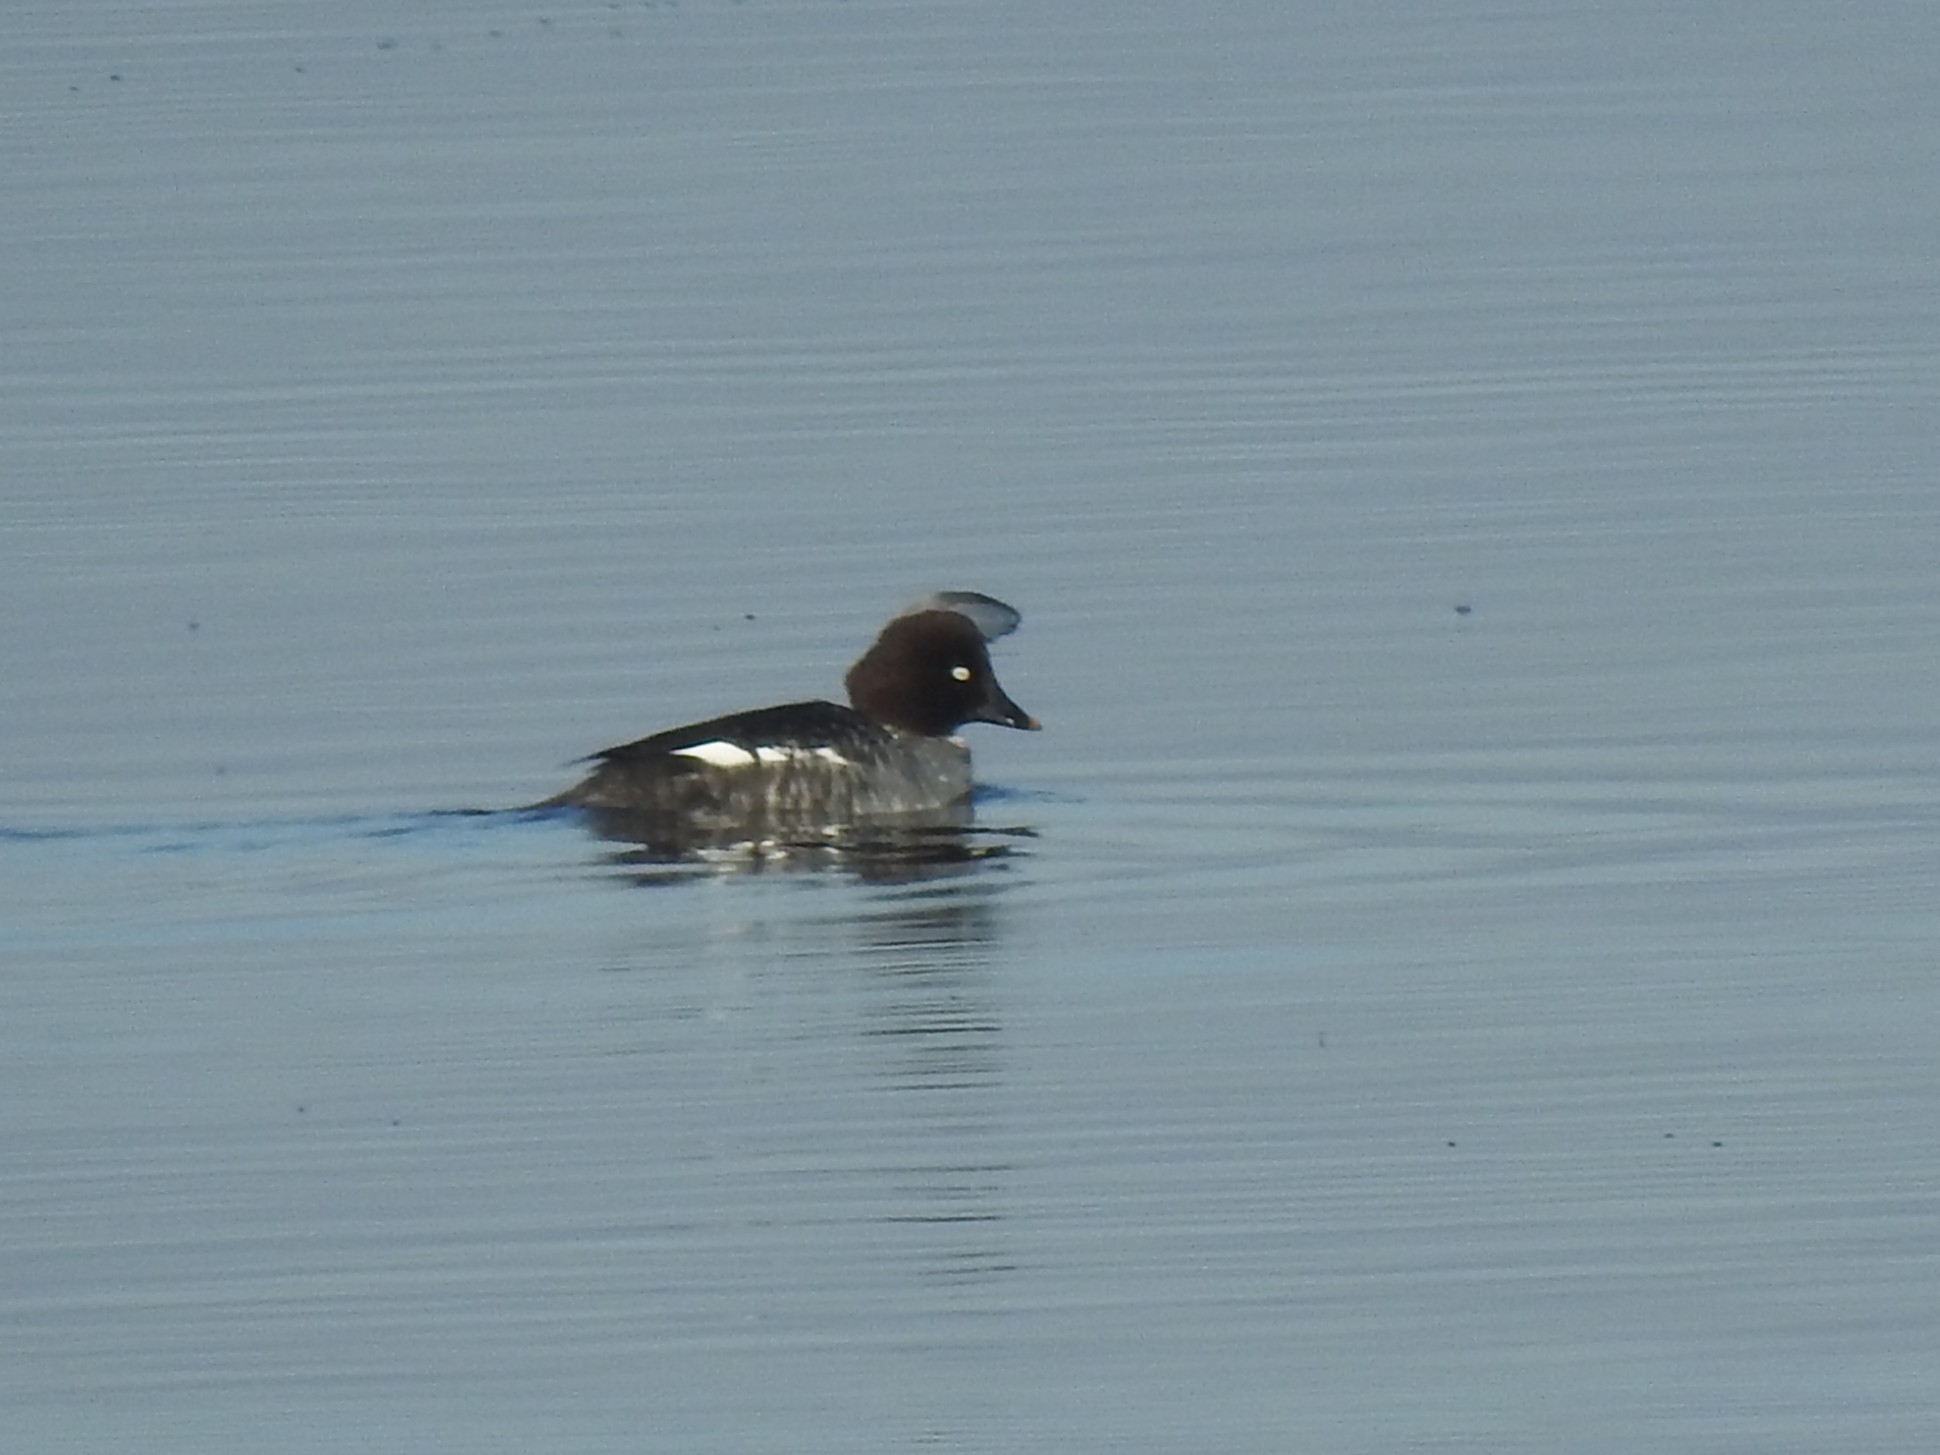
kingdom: Animalia
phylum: Chordata
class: Aves
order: Anseriformes
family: Anatidae
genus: Bucephala
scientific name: Bucephala clangula
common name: Common goldeneye
